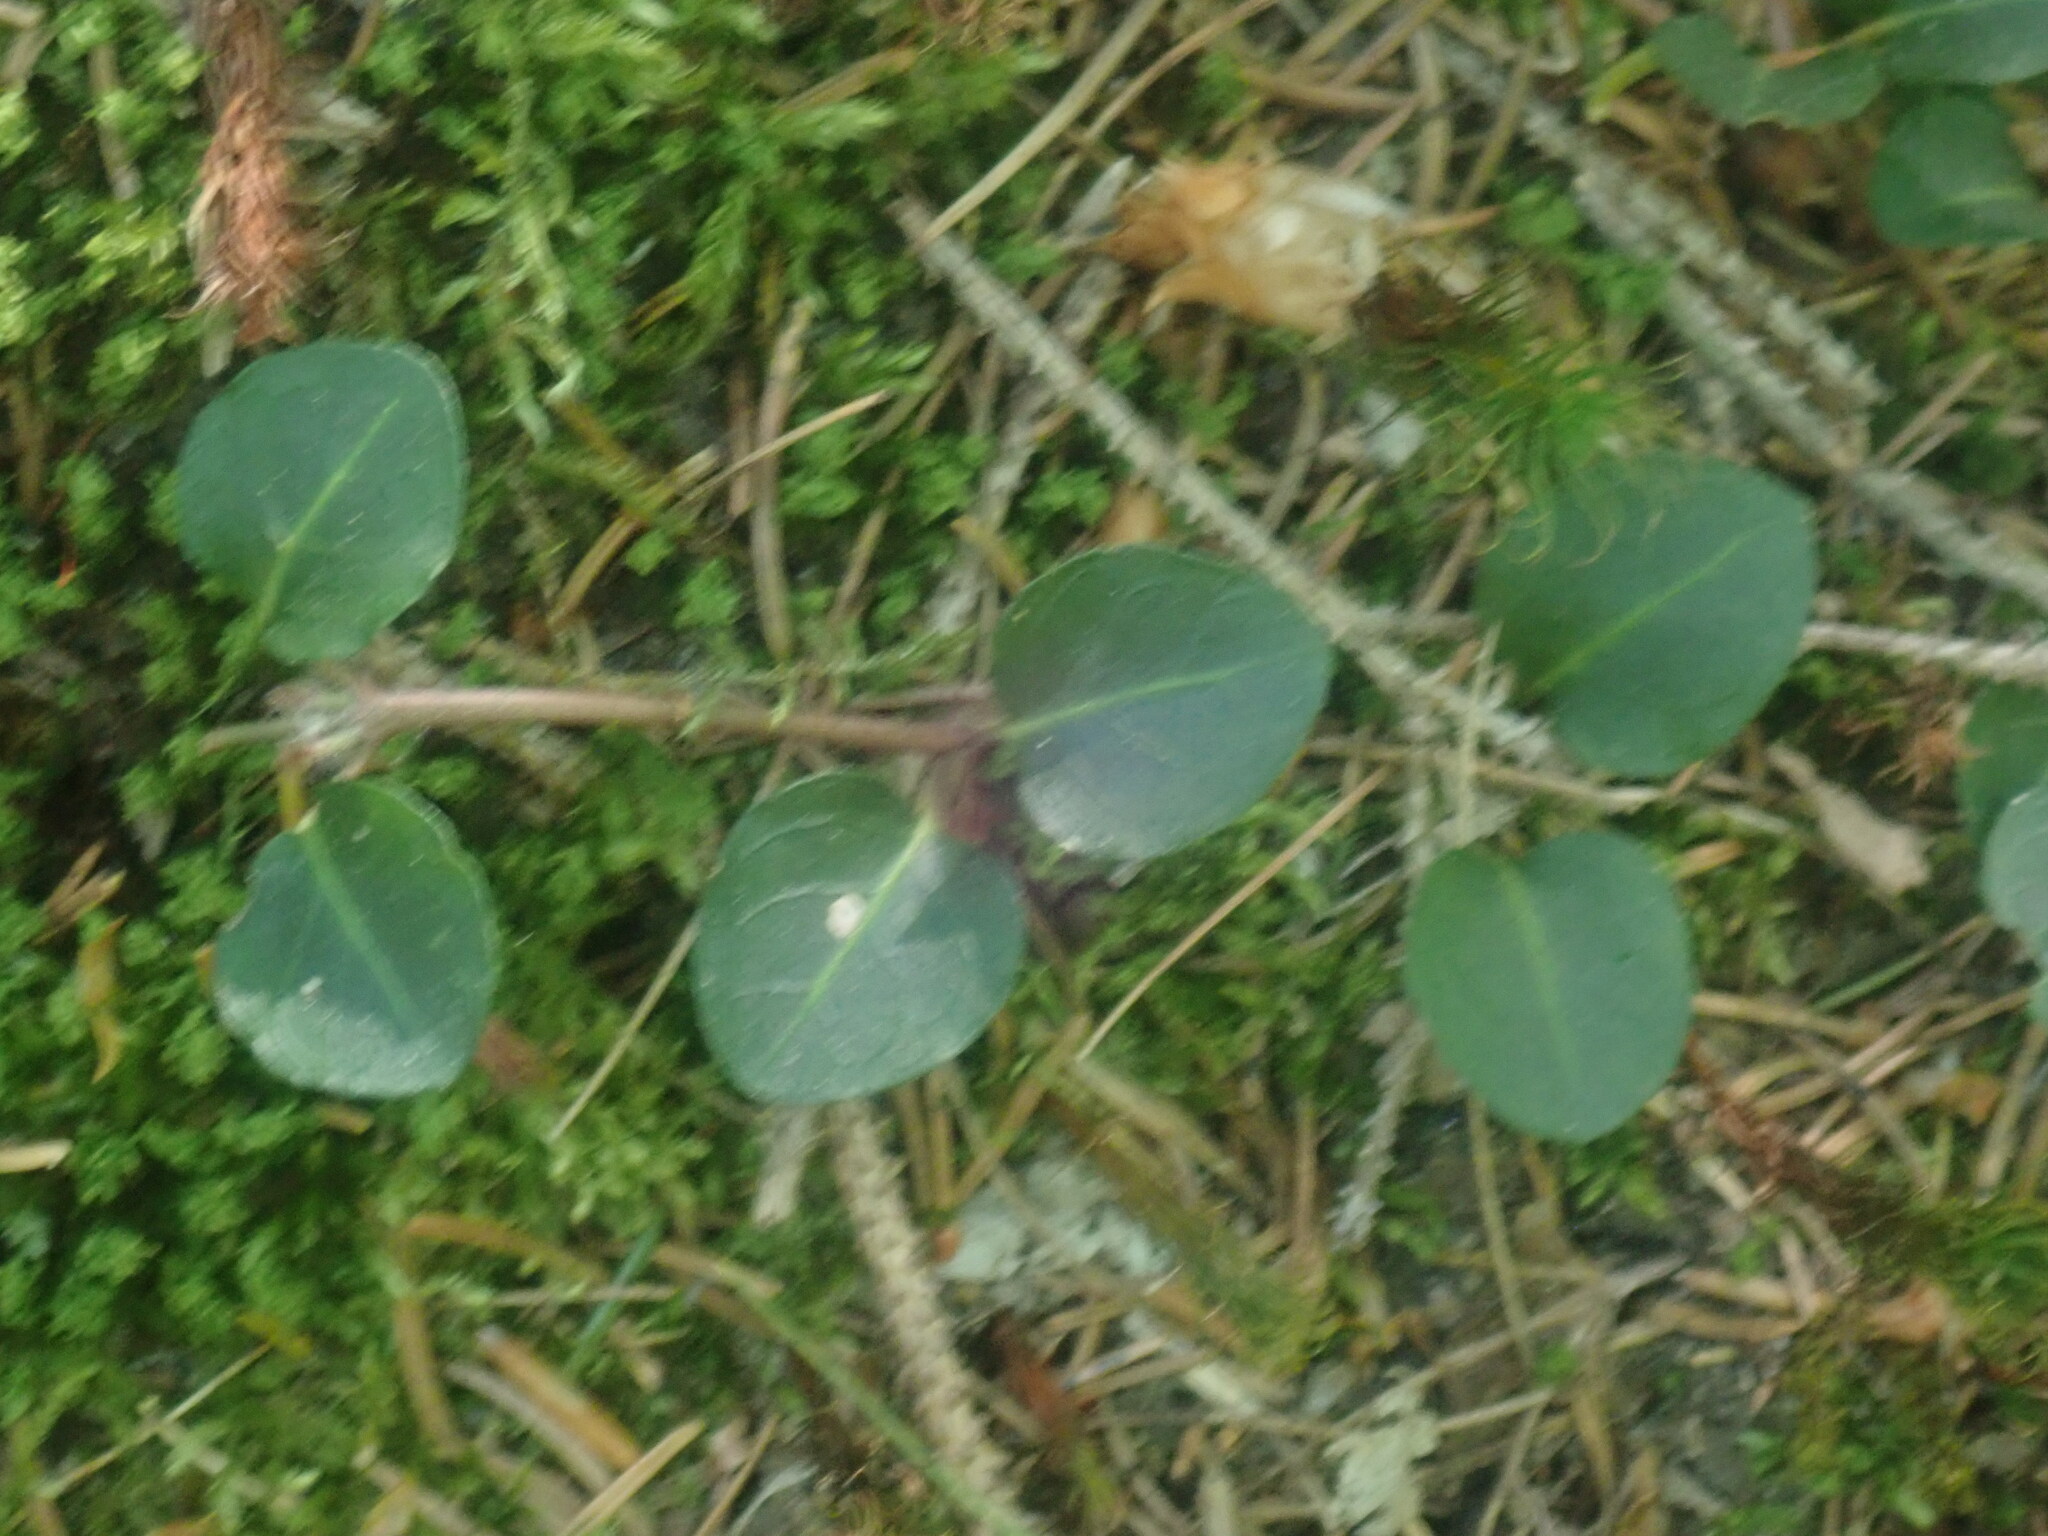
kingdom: Plantae
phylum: Tracheophyta
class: Magnoliopsida
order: Gentianales
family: Rubiaceae
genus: Mitchella
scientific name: Mitchella repens
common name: Partridge-berry
